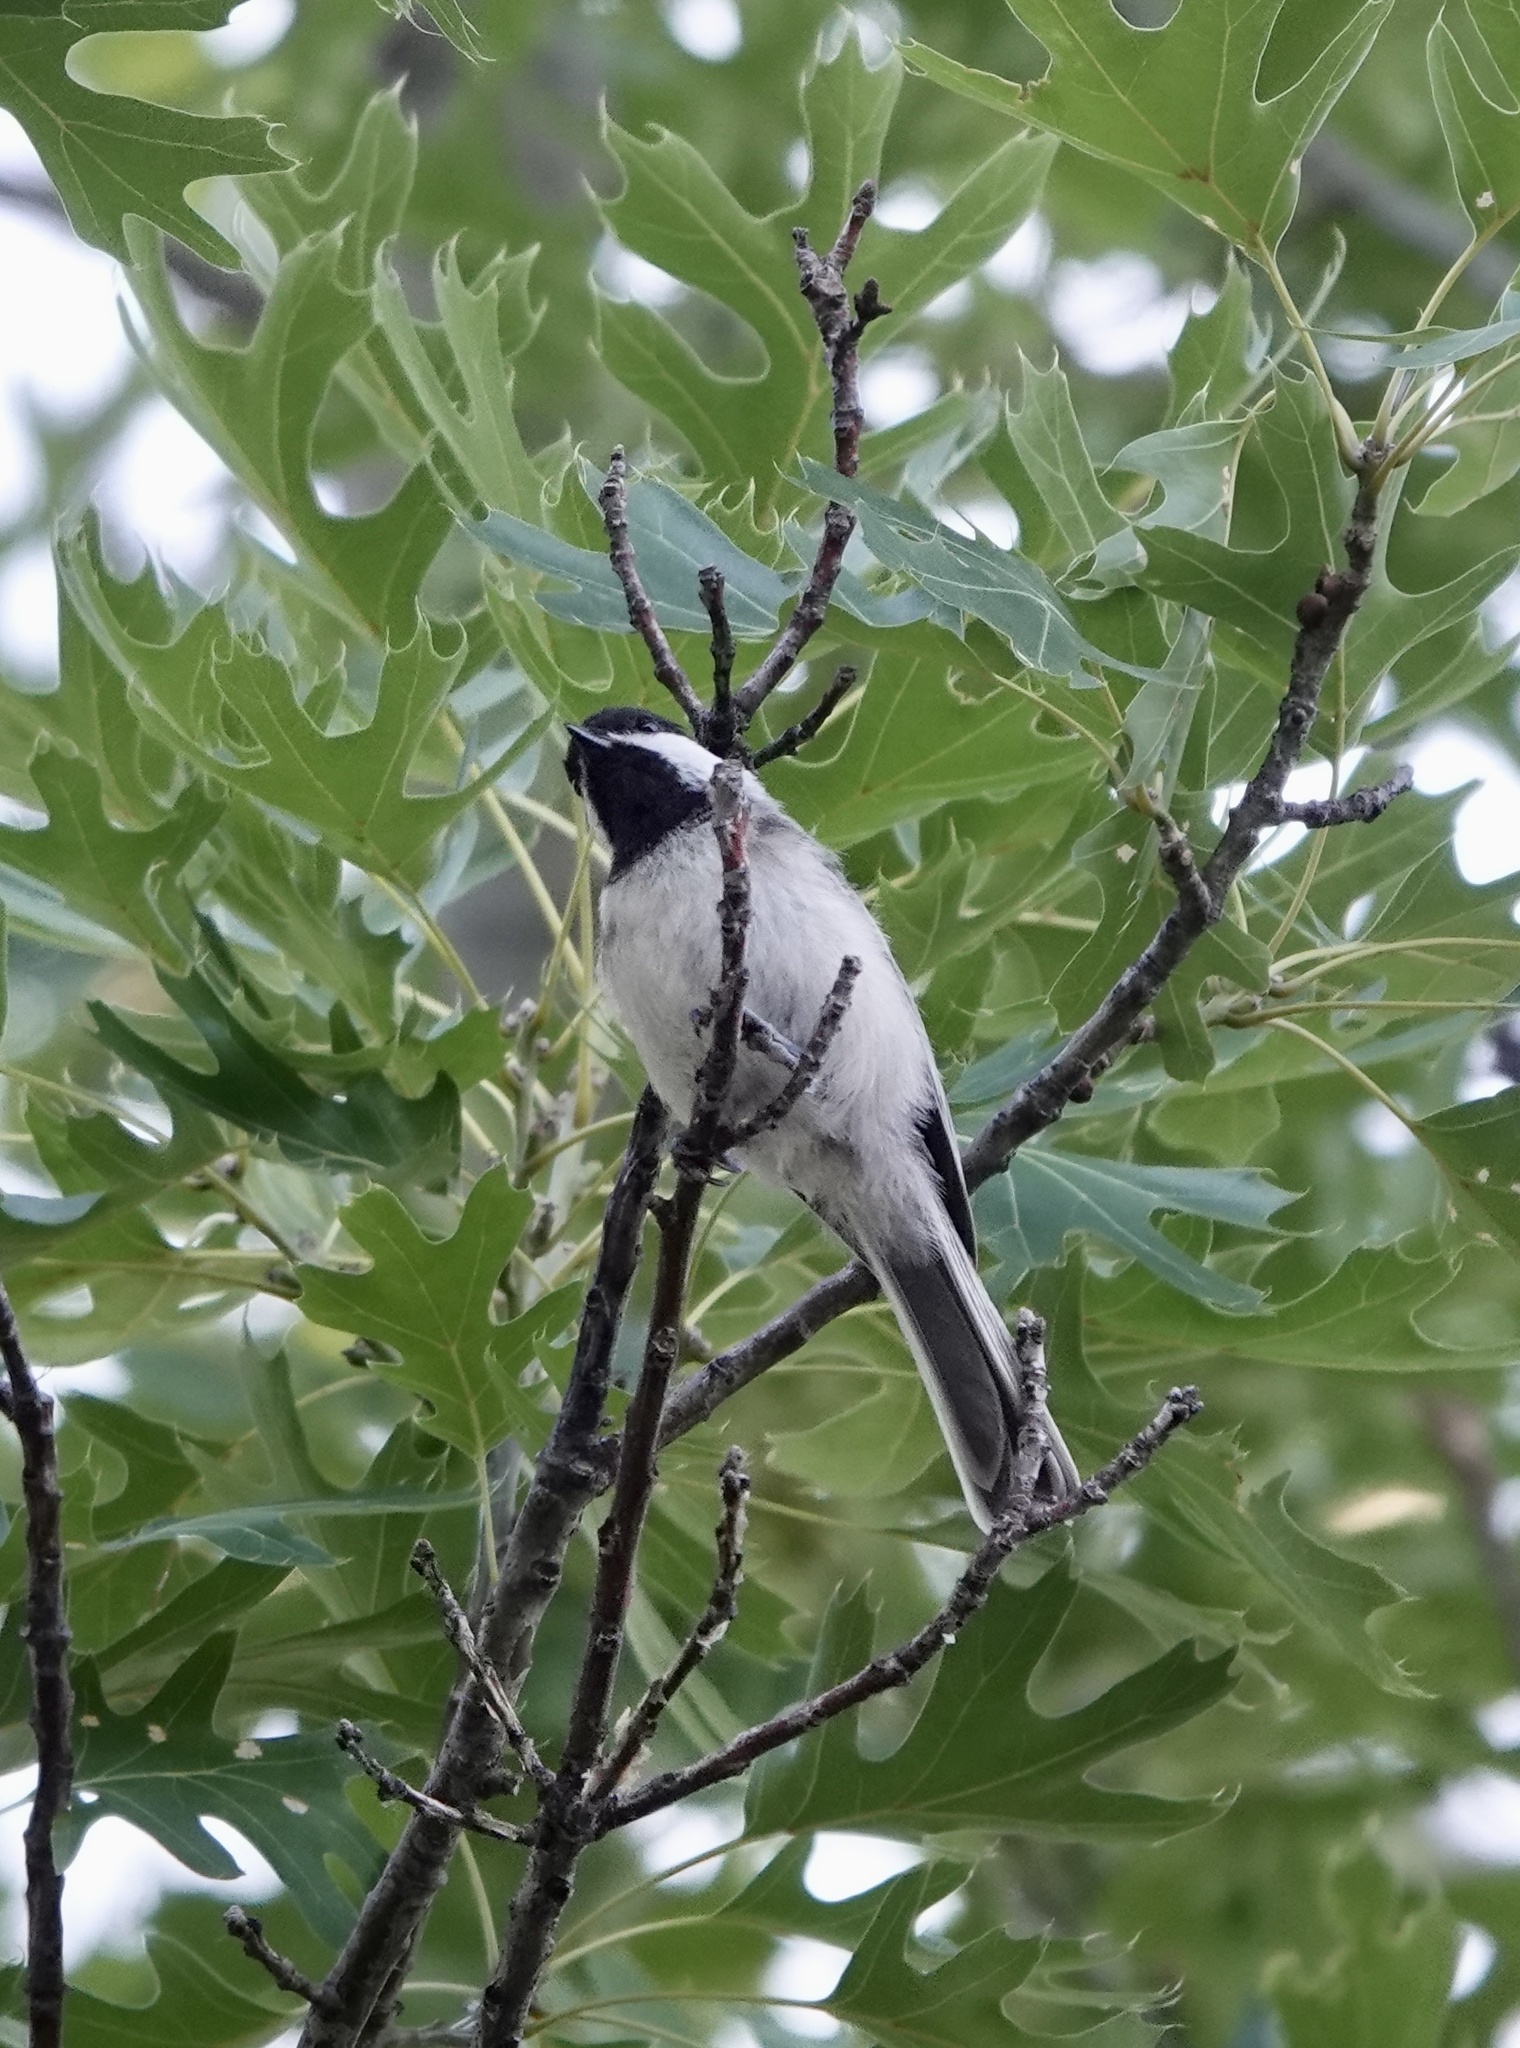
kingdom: Animalia
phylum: Chordata
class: Aves
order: Passeriformes
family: Paridae
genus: Poecile
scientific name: Poecile atricapillus
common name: Black-capped chickadee
